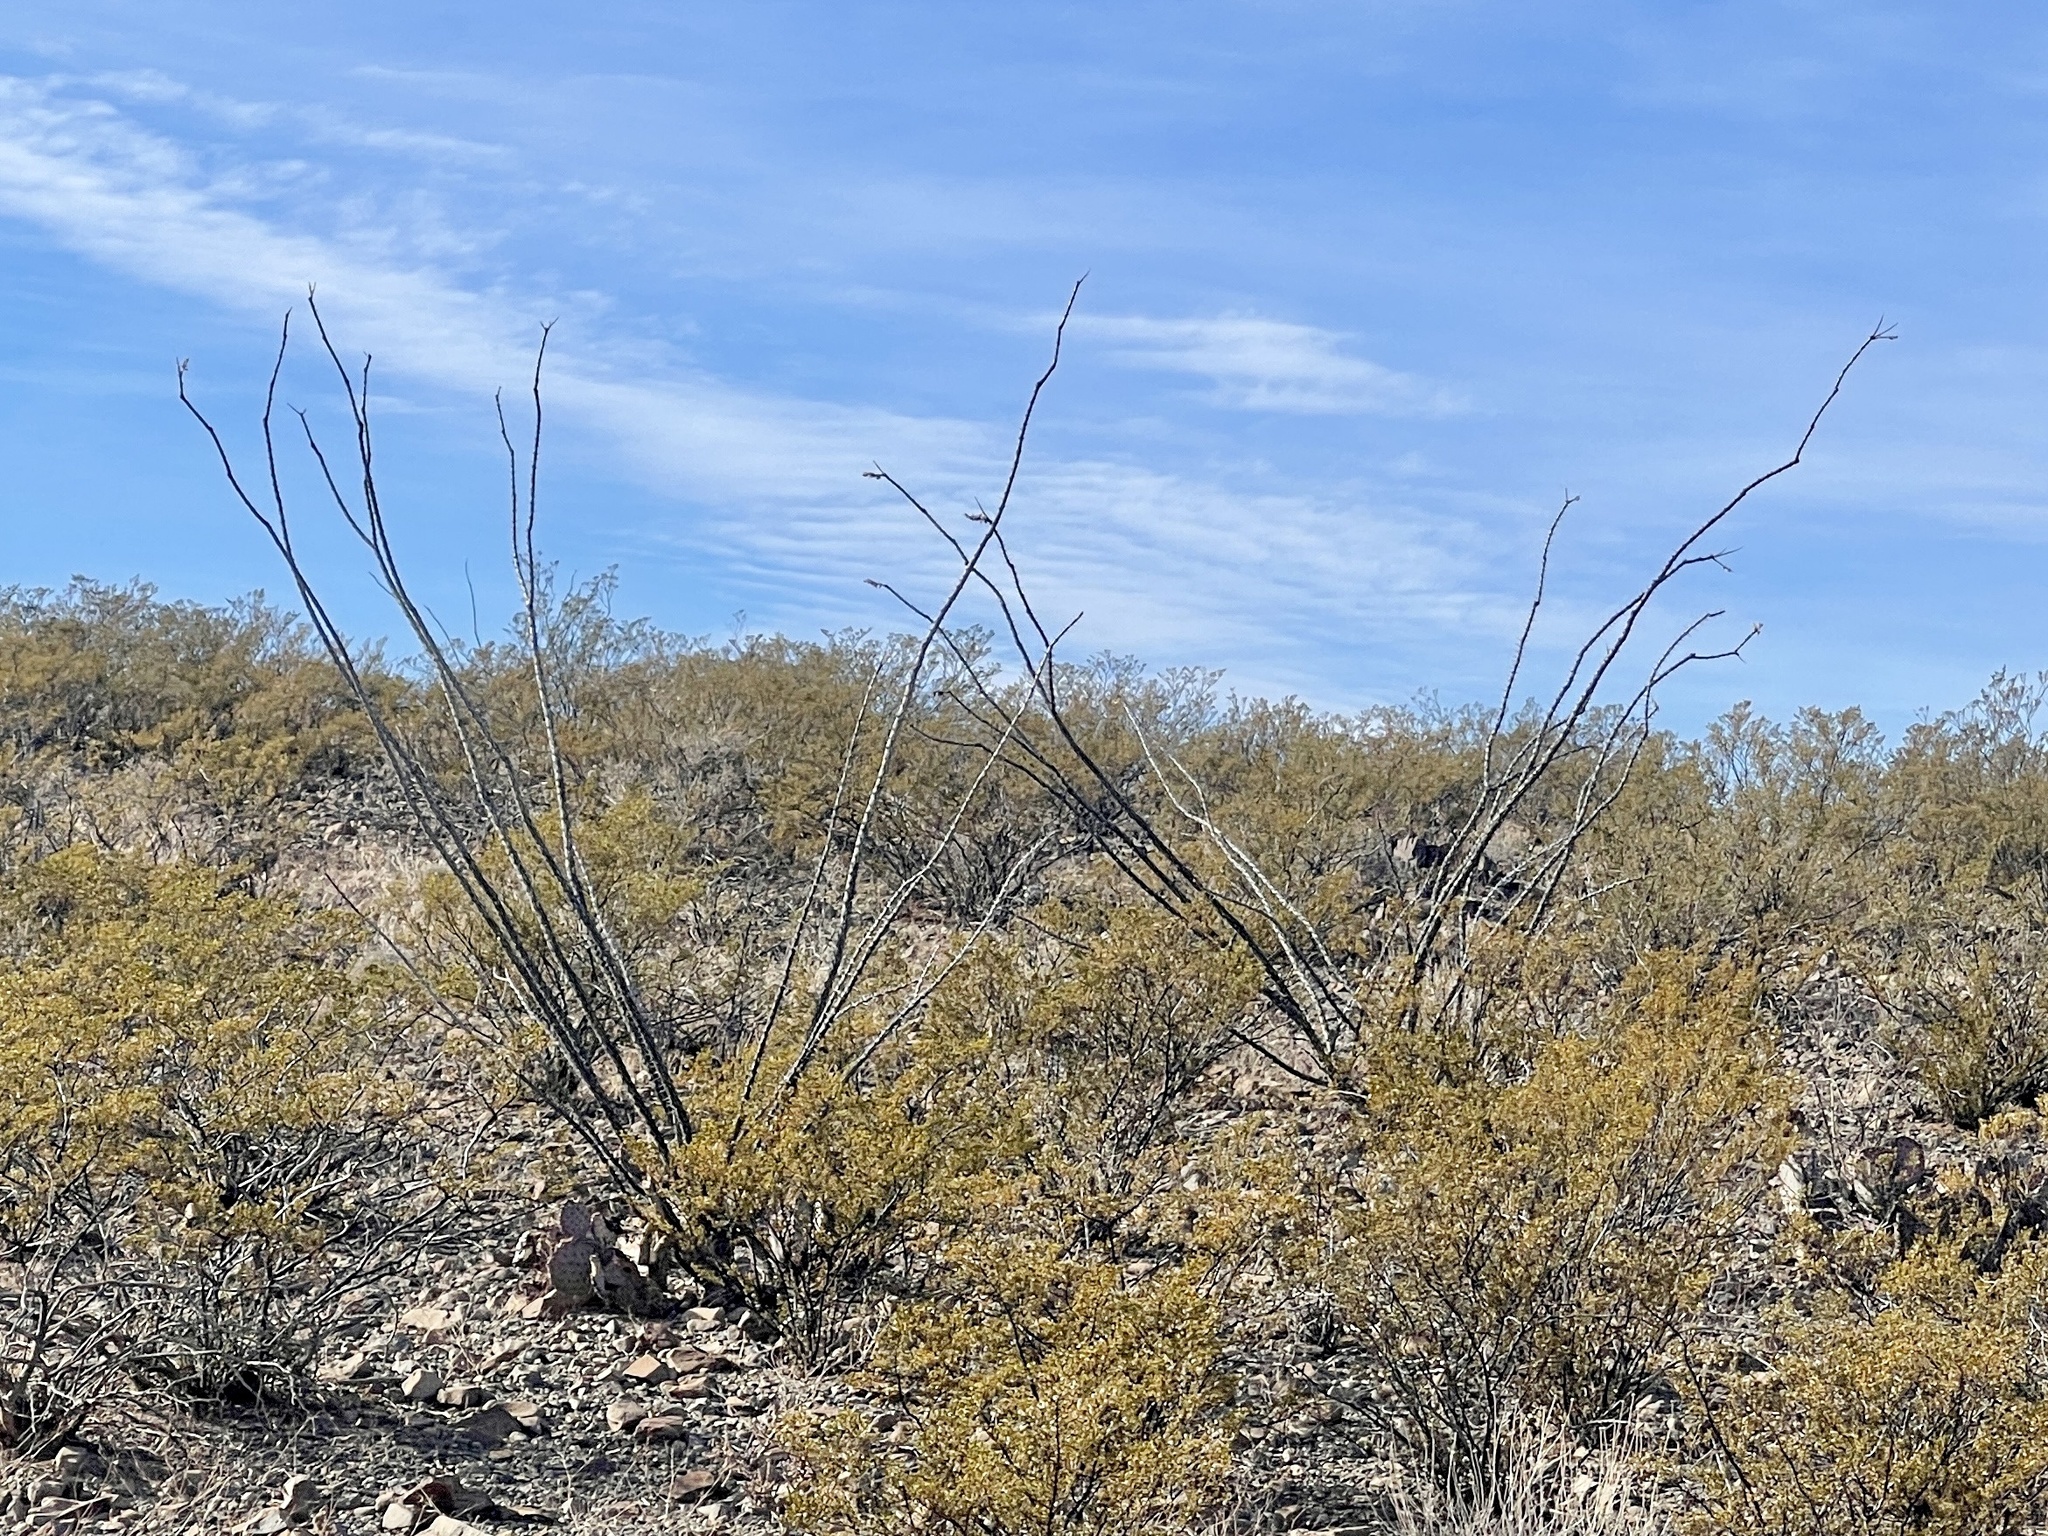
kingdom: Plantae
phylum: Tracheophyta
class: Magnoliopsida
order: Ericales
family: Fouquieriaceae
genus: Fouquieria
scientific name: Fouquieria splendens
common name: Vine-cactus
